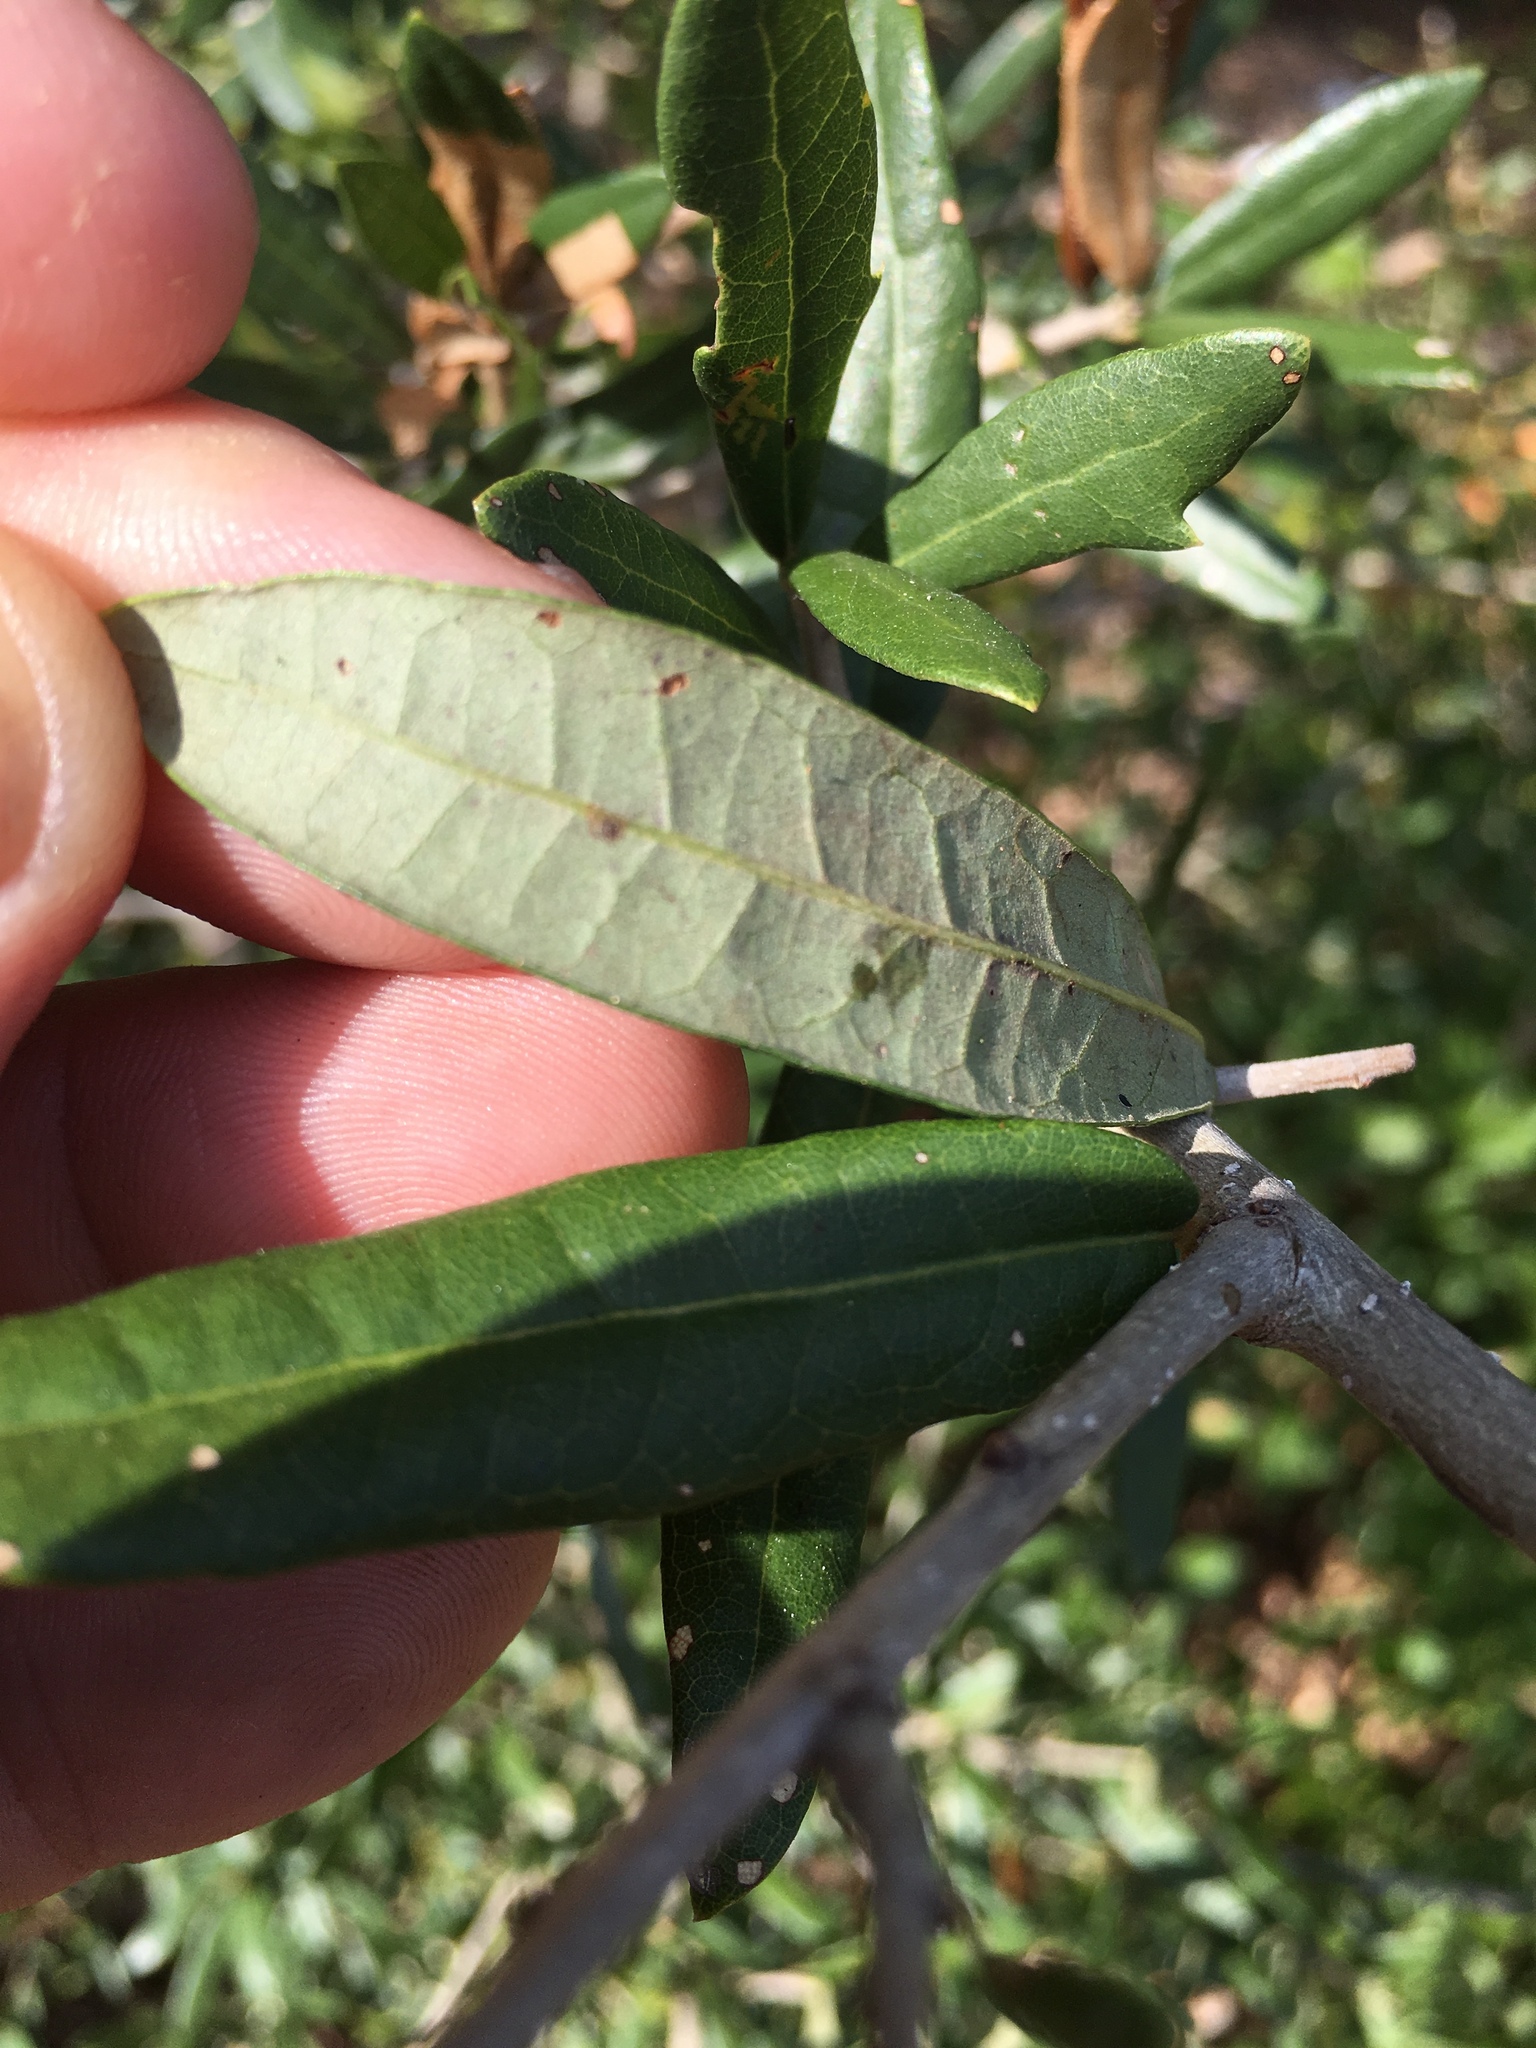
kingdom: Plantae
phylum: Tracheophyta
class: Magnoliopsida
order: Fagales
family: Fagaceae
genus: Quercus
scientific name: Quercus virginiana
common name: Southern live oak
